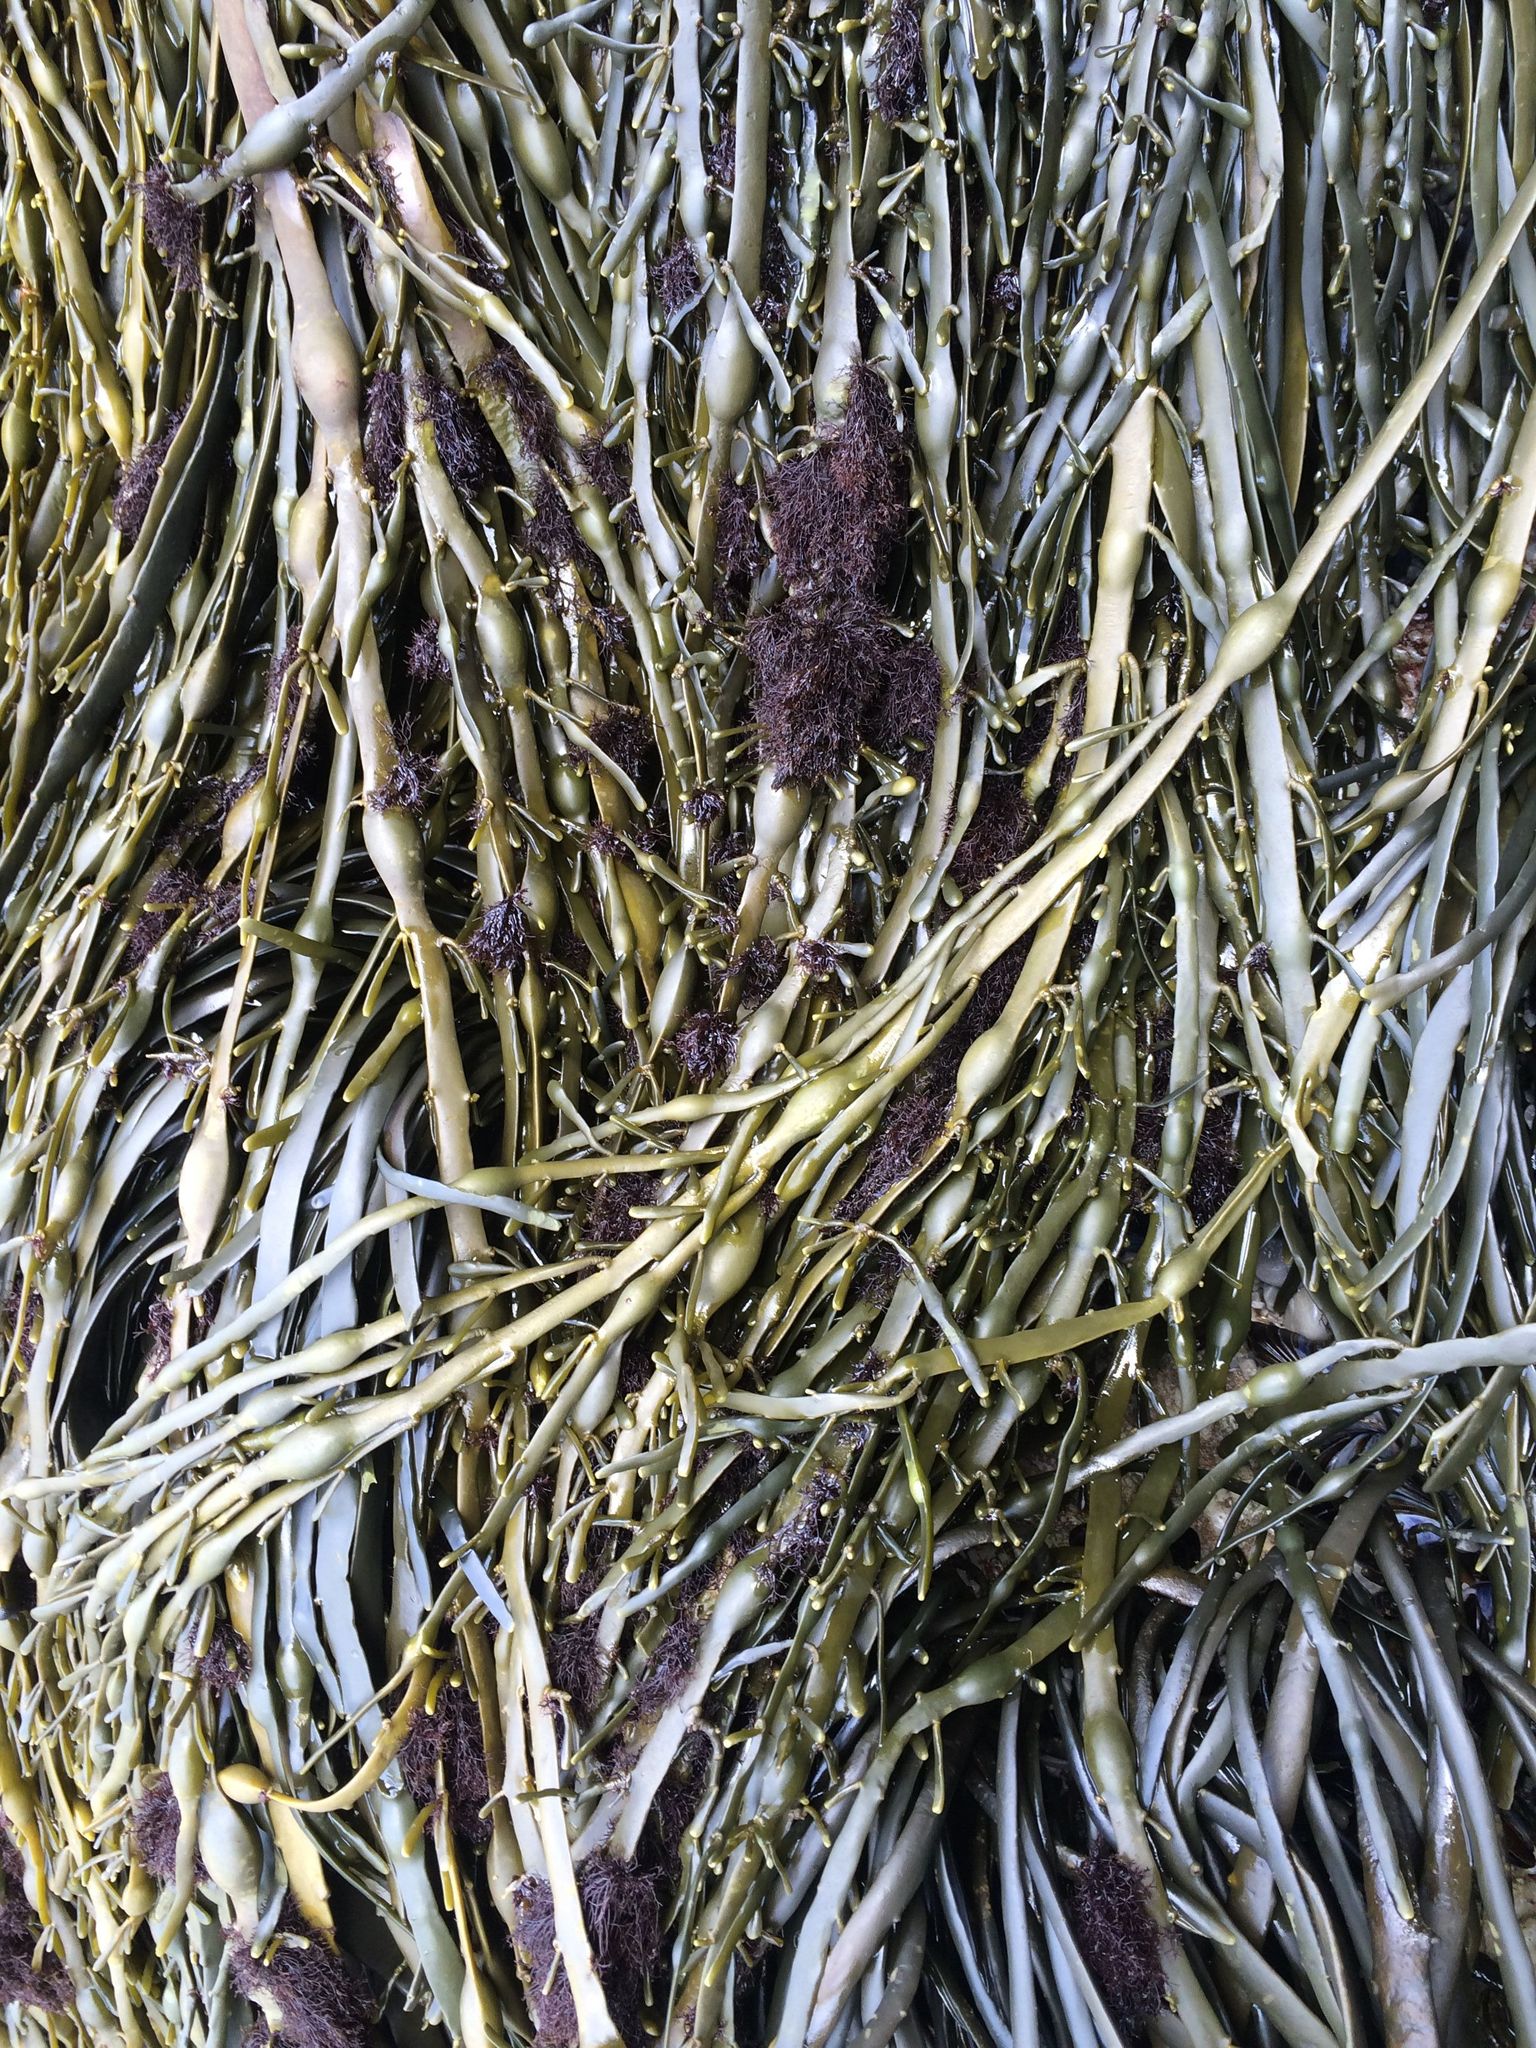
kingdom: Chromista
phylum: Ochrophyta
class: Phaeophyceae
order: Fucales
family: Fucaceae
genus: Ascophyllum
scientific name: Ascophyllum nodosum
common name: Knotted wrack
